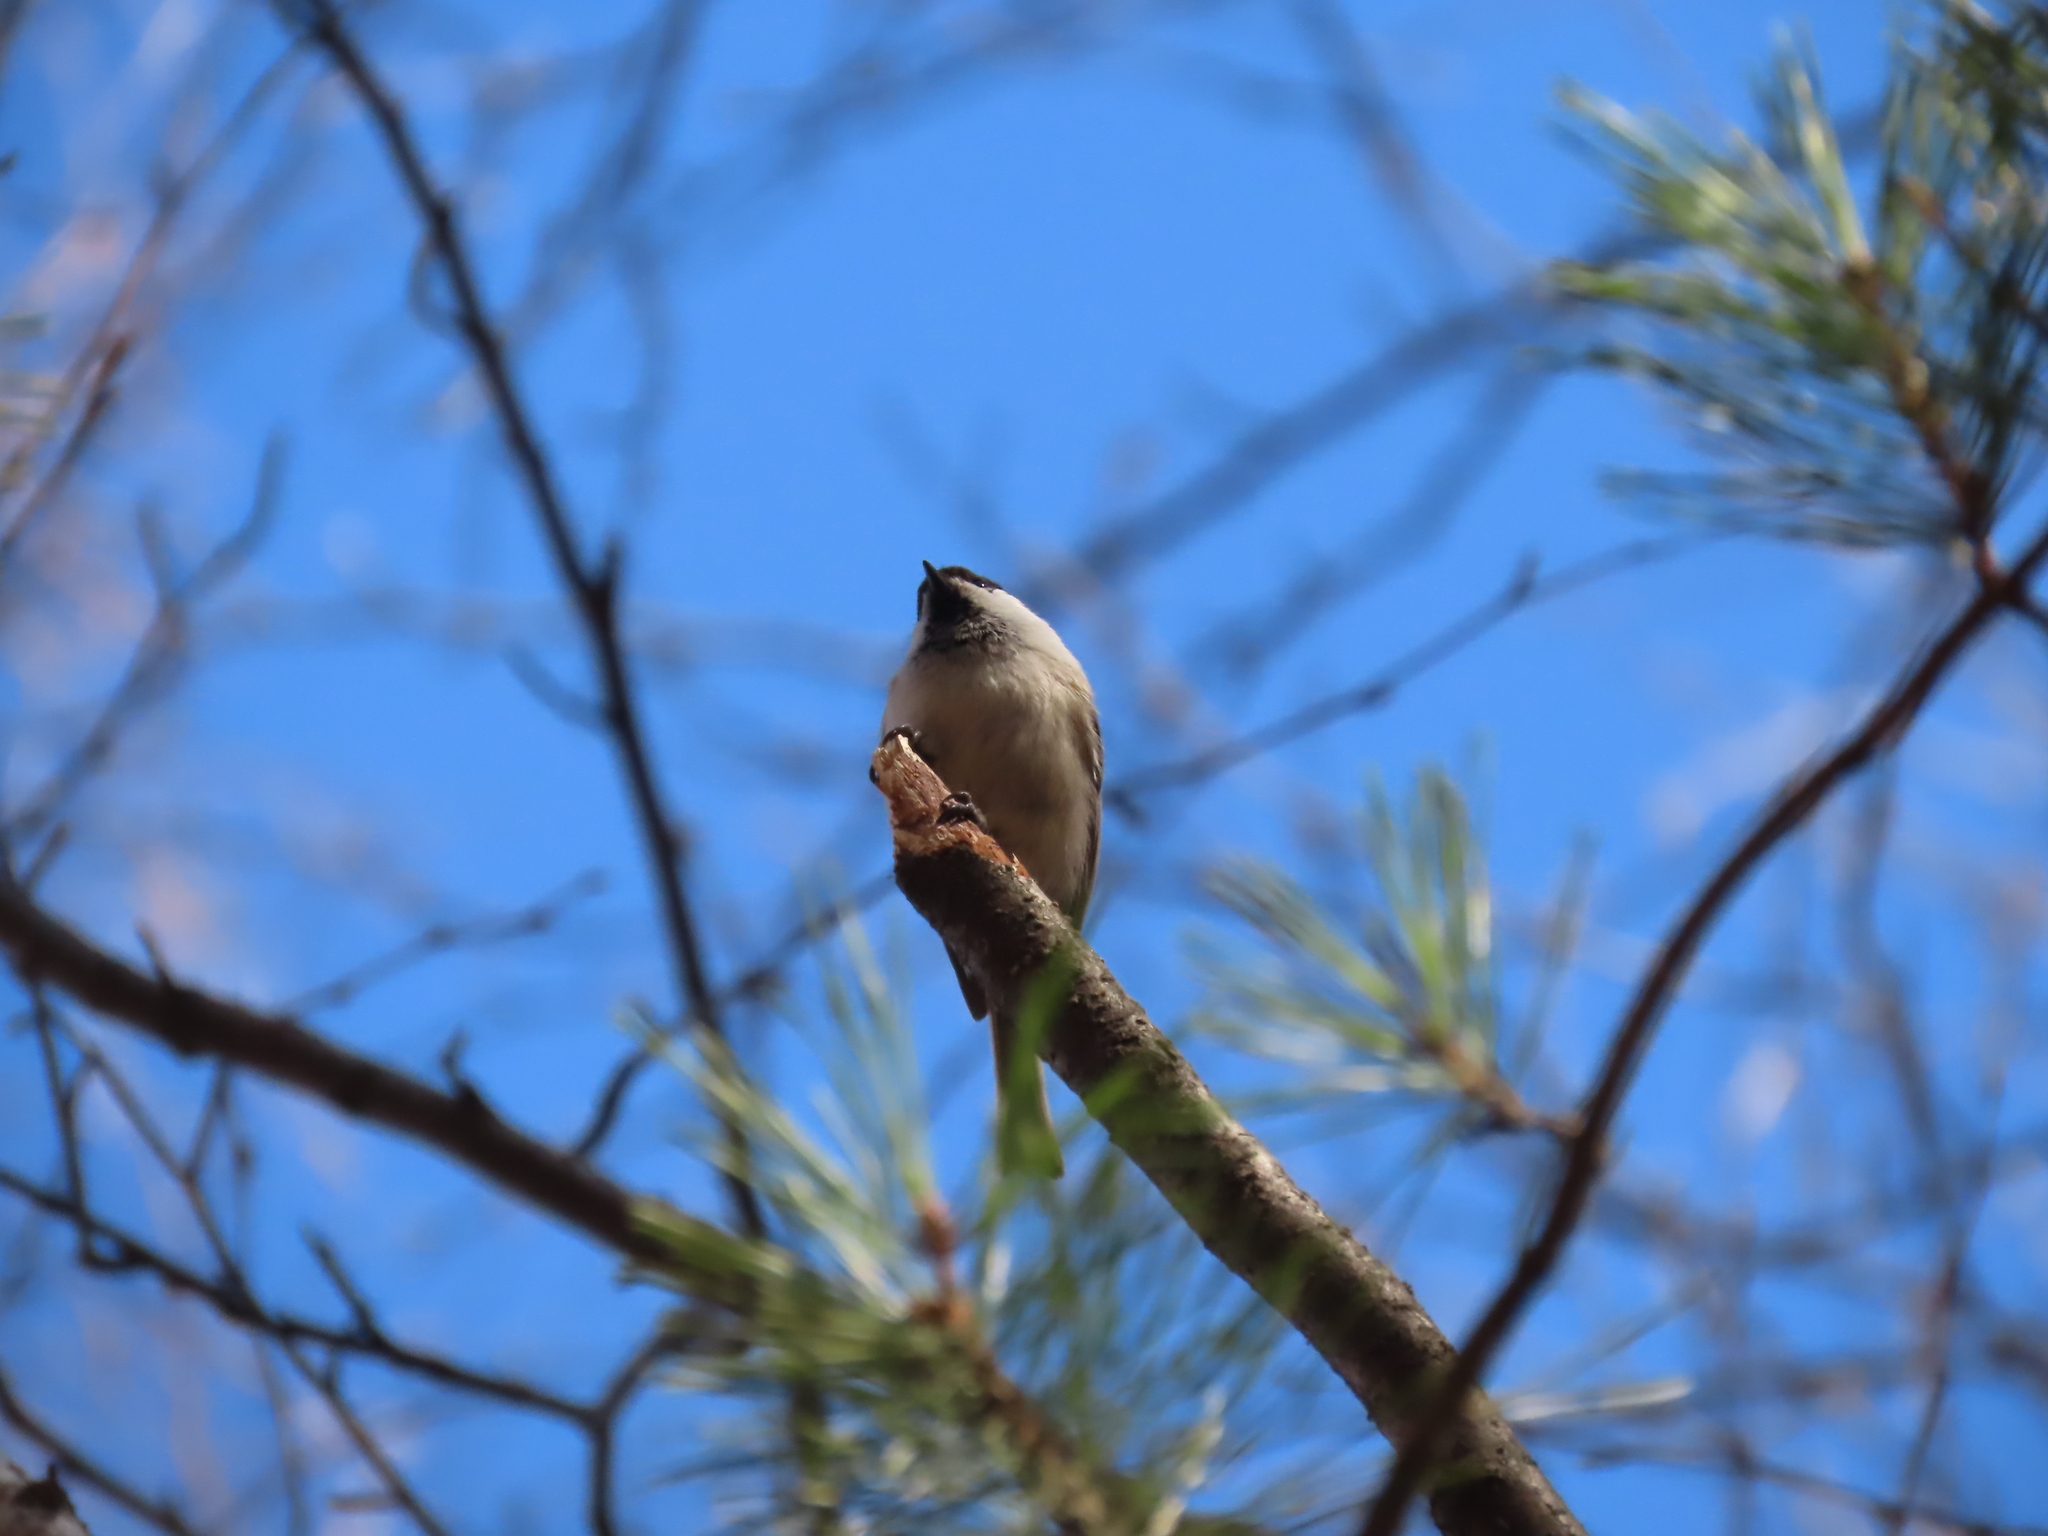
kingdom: Animalia
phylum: Chordata
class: Aves
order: Passeriformes
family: Paridae
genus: Poecile
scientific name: Poecile montanus
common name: Willow tit
